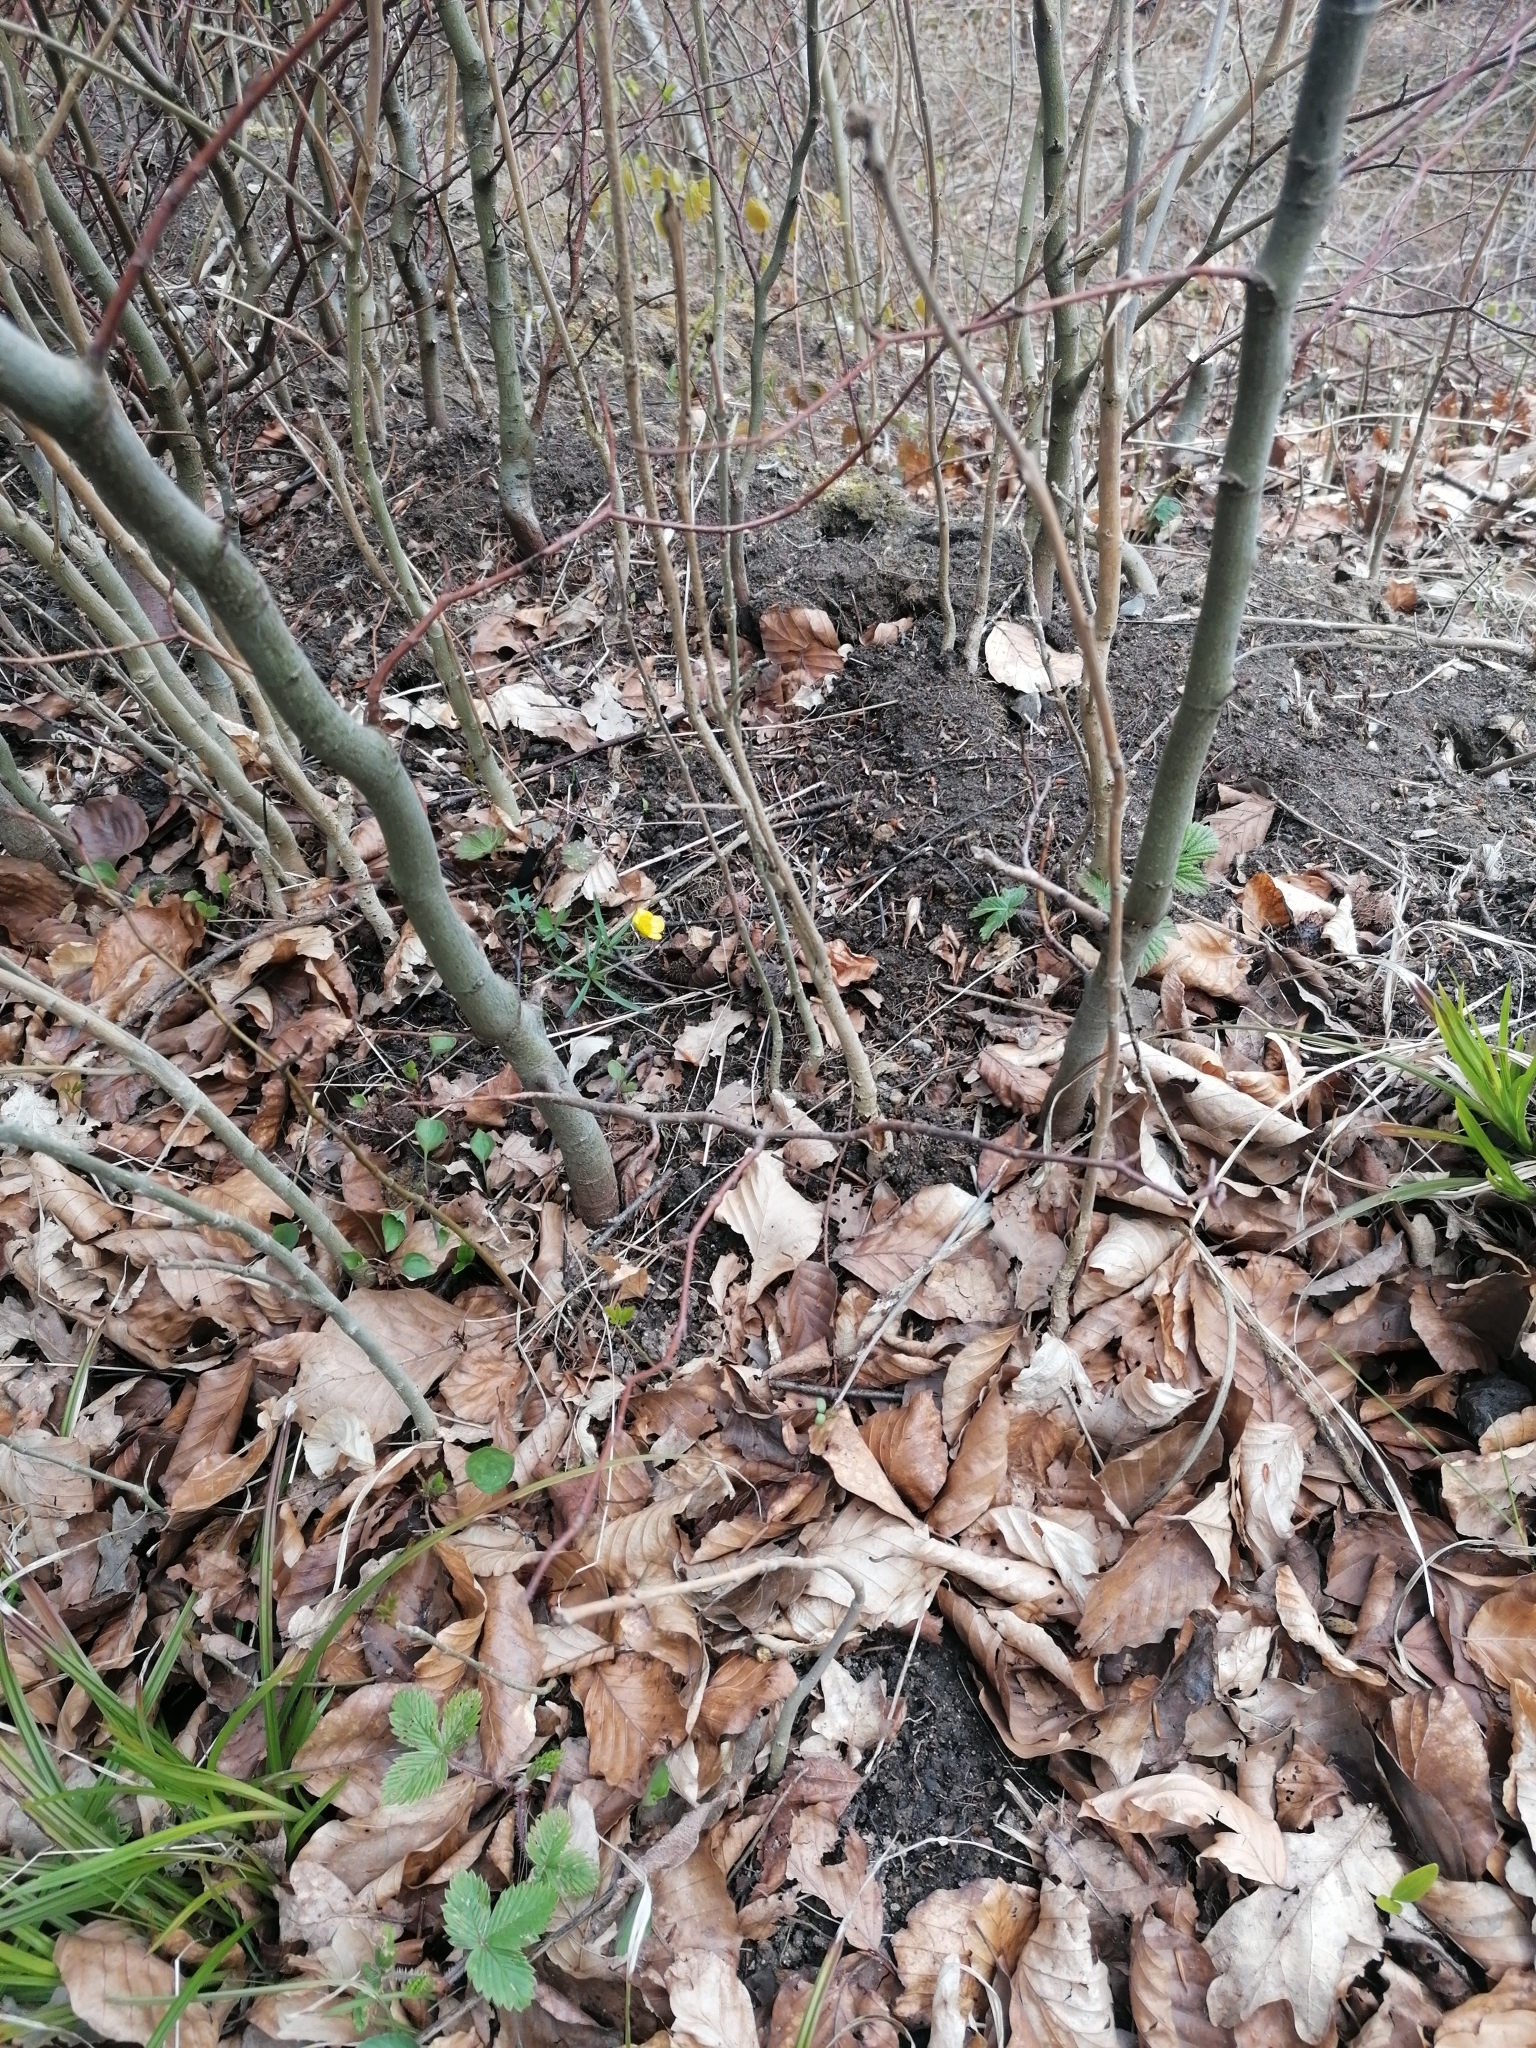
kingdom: Plantae
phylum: Tracheophyta
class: Magnoliopsida
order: Ranunculales
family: Ranunculaceae
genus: Ranunculus
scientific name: Ranunculus auricomus
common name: Goldilocks buttercup
